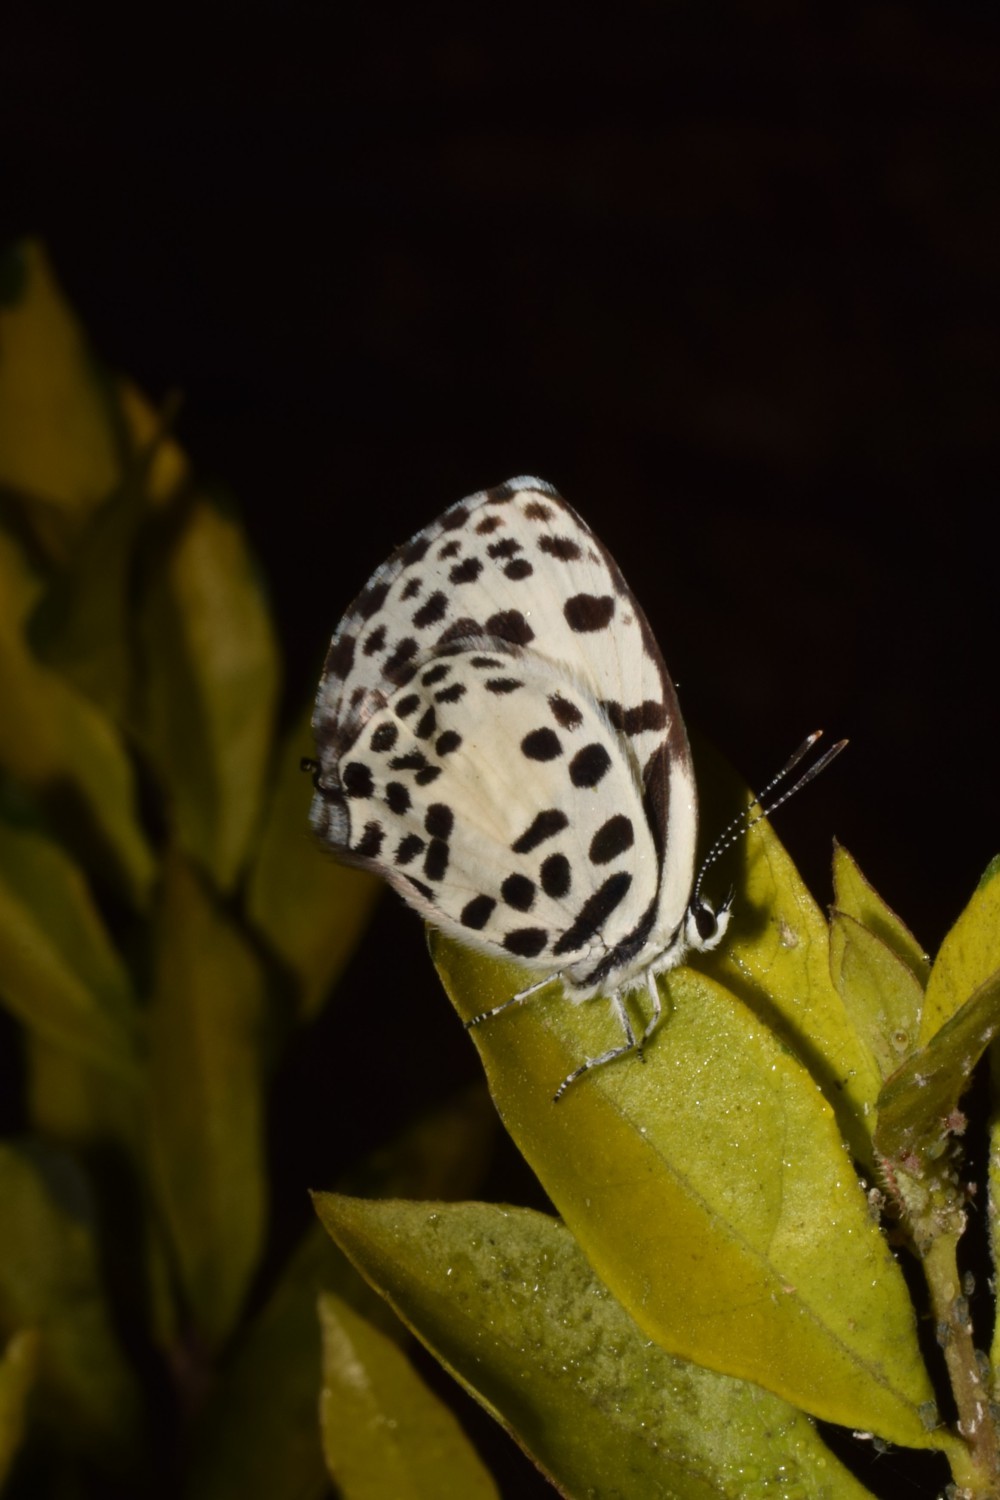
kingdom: Animalia
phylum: Arthropoda
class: Insecta
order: Lepidoptera
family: Lycaenidae
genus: Castalius
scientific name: Castalius rosimon
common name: Common pierrot
